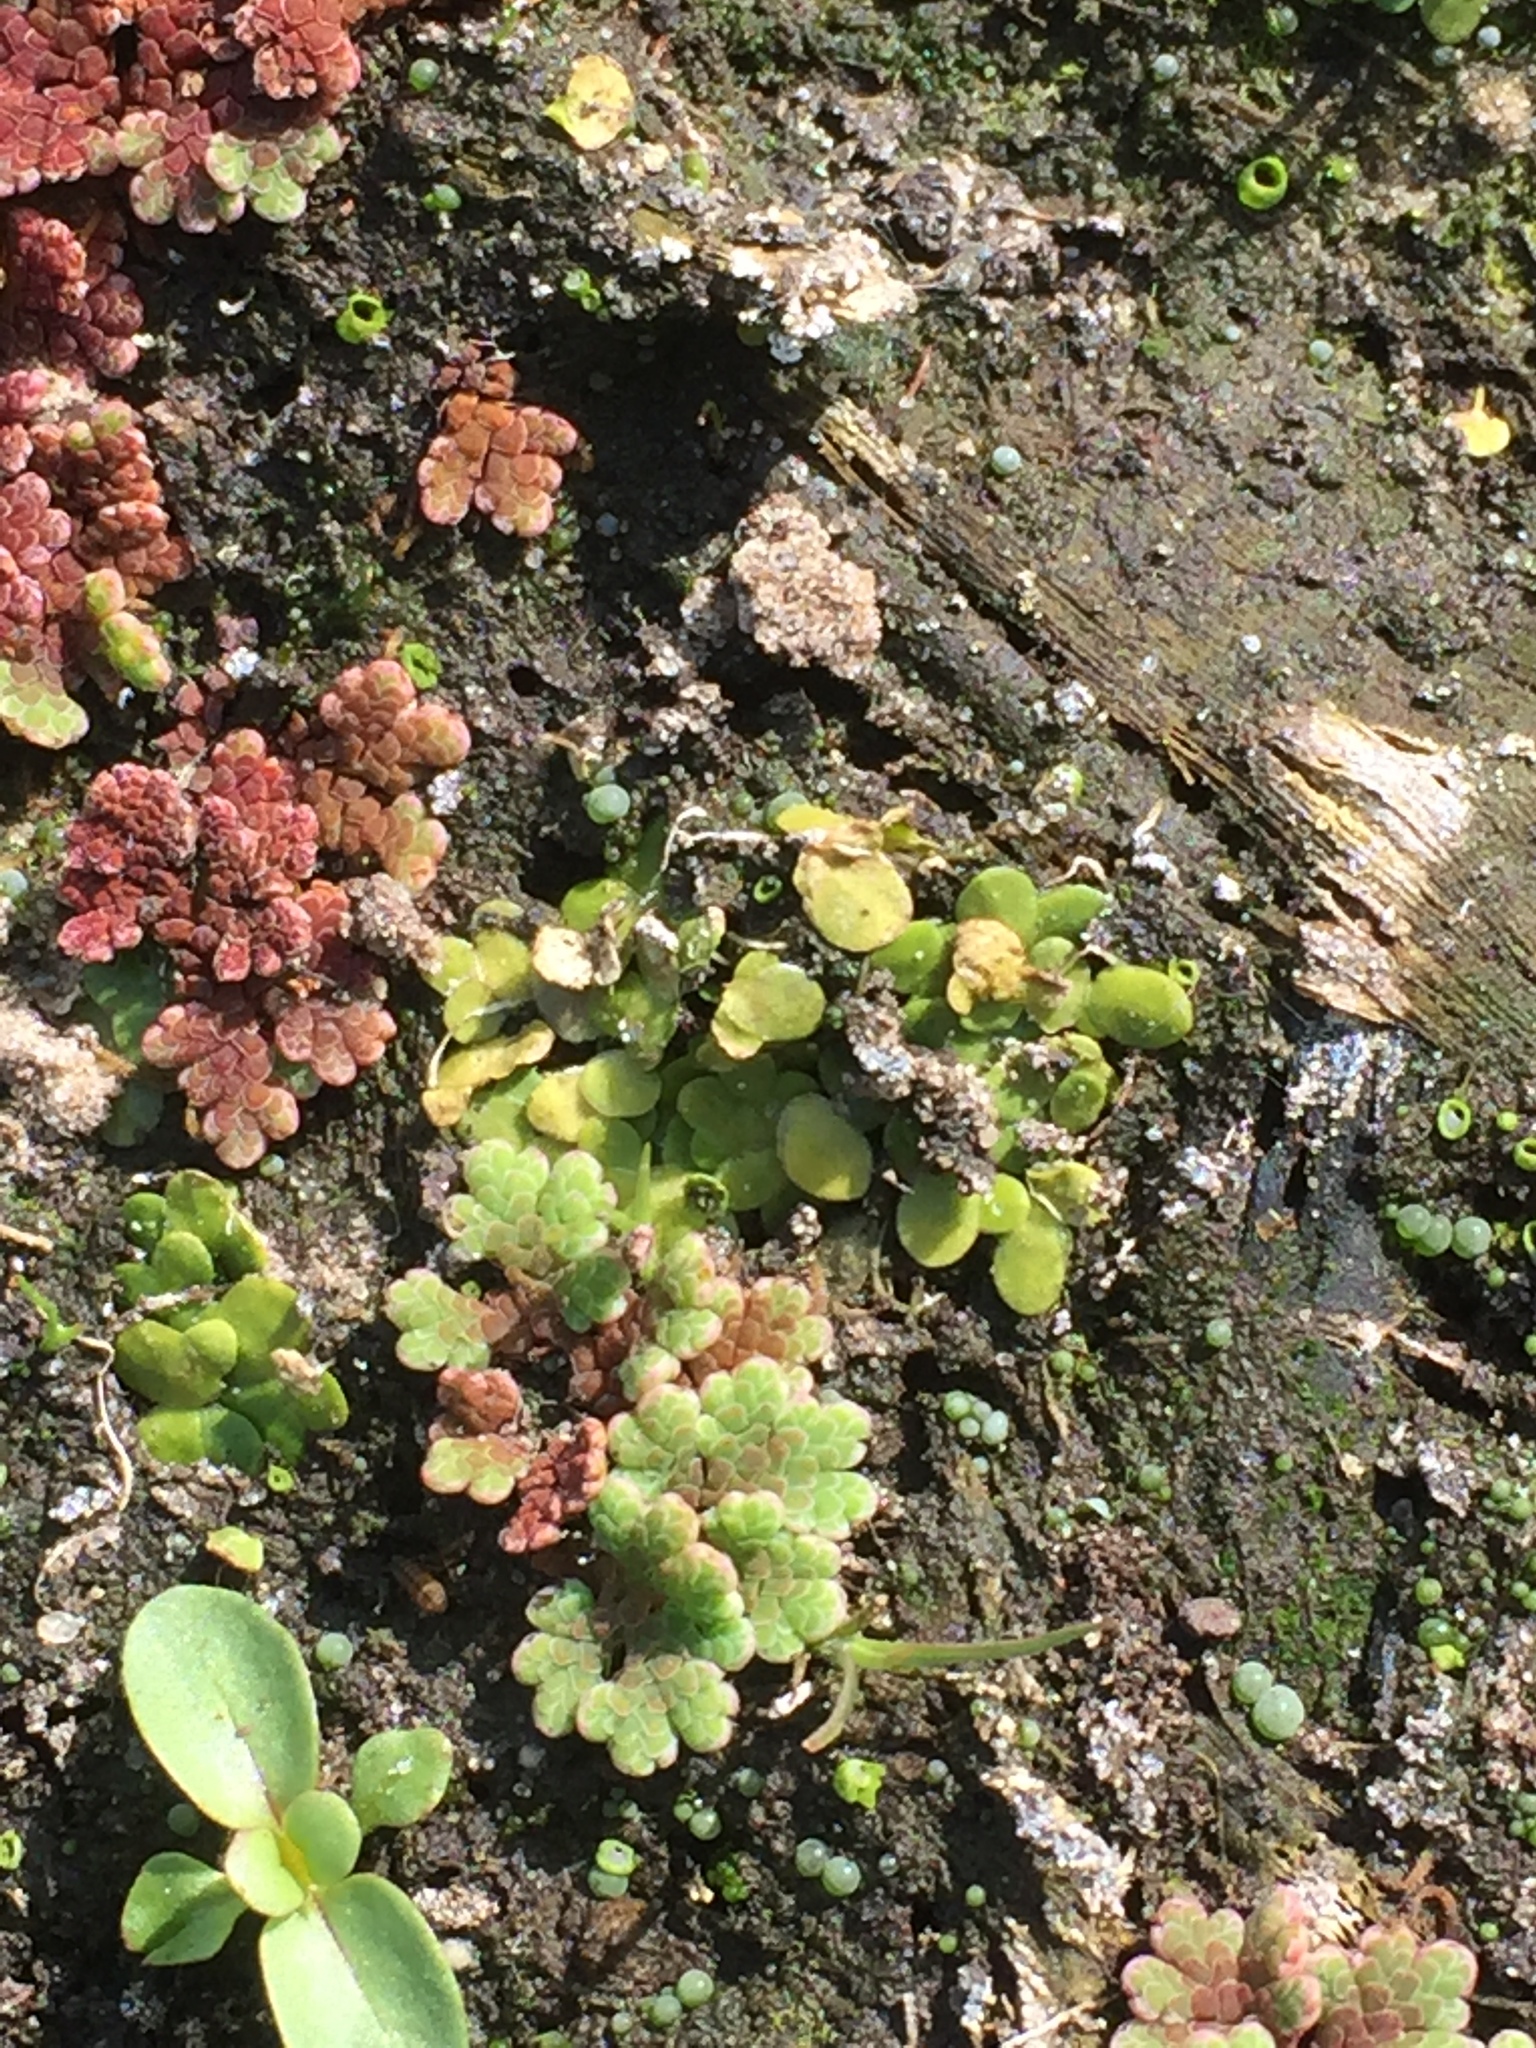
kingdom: Plantae
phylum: Tracheophyta
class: Polypodiopsida
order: Salviniales
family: Salviniaceae
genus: Azolla
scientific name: Azolla filiculoides
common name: Water fern
